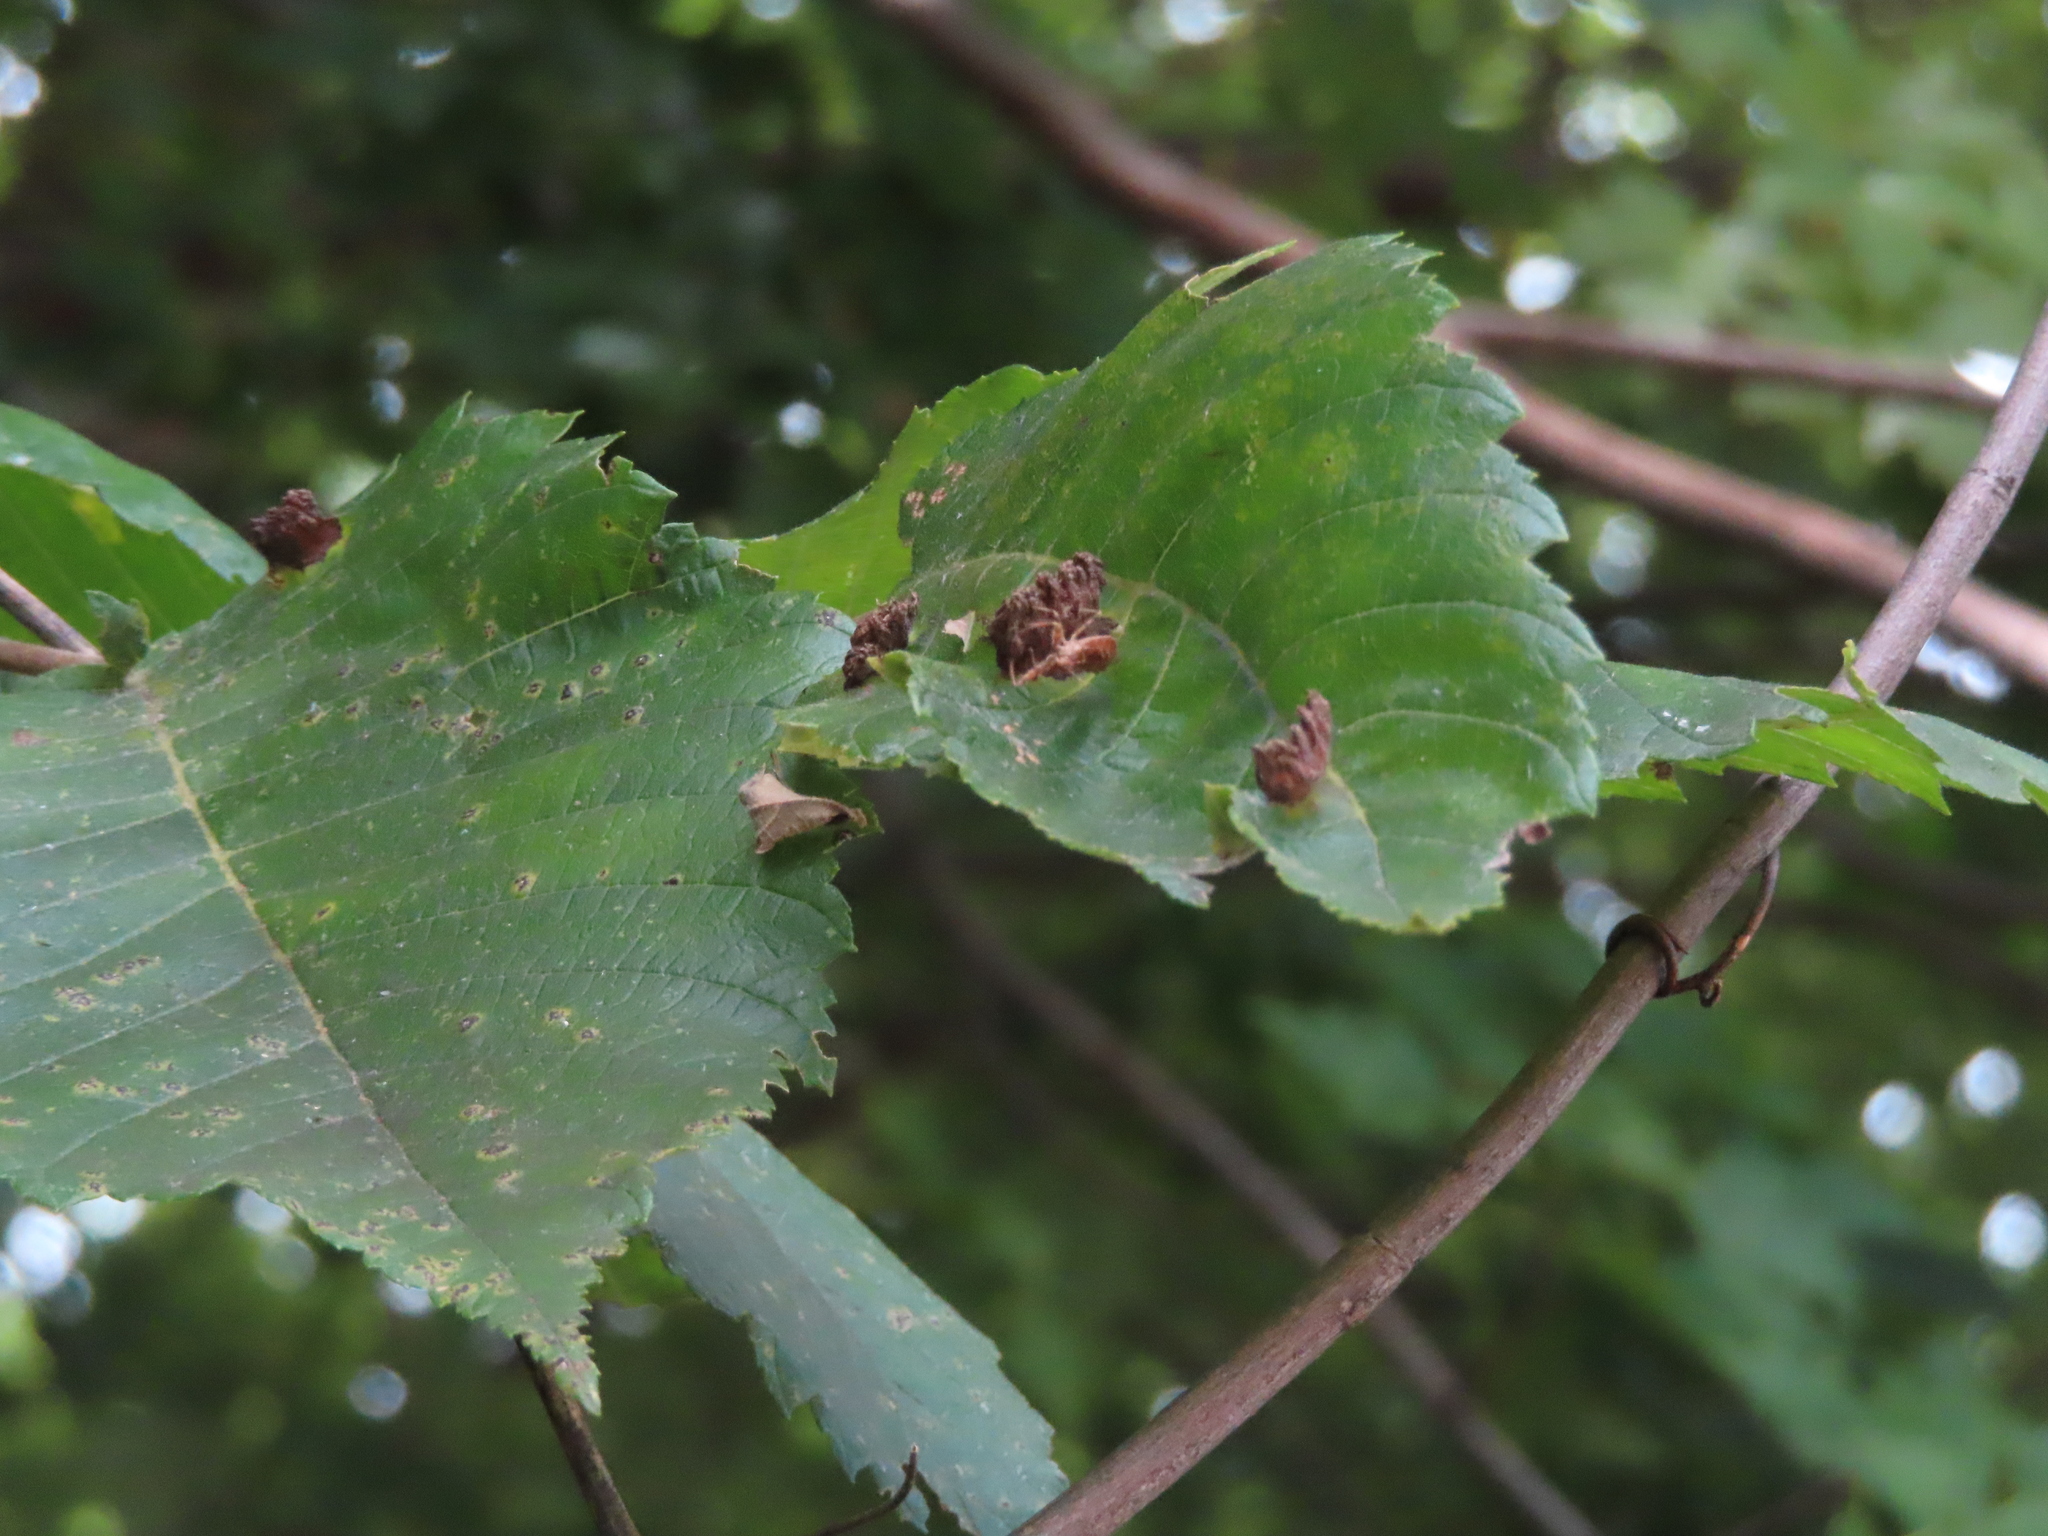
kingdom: Animalia
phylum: Arthropoda
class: Insecta
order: Hemiptera
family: Aphididae
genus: Colopha
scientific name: Colopha ulmicola
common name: Elm cockscombgall aphid
